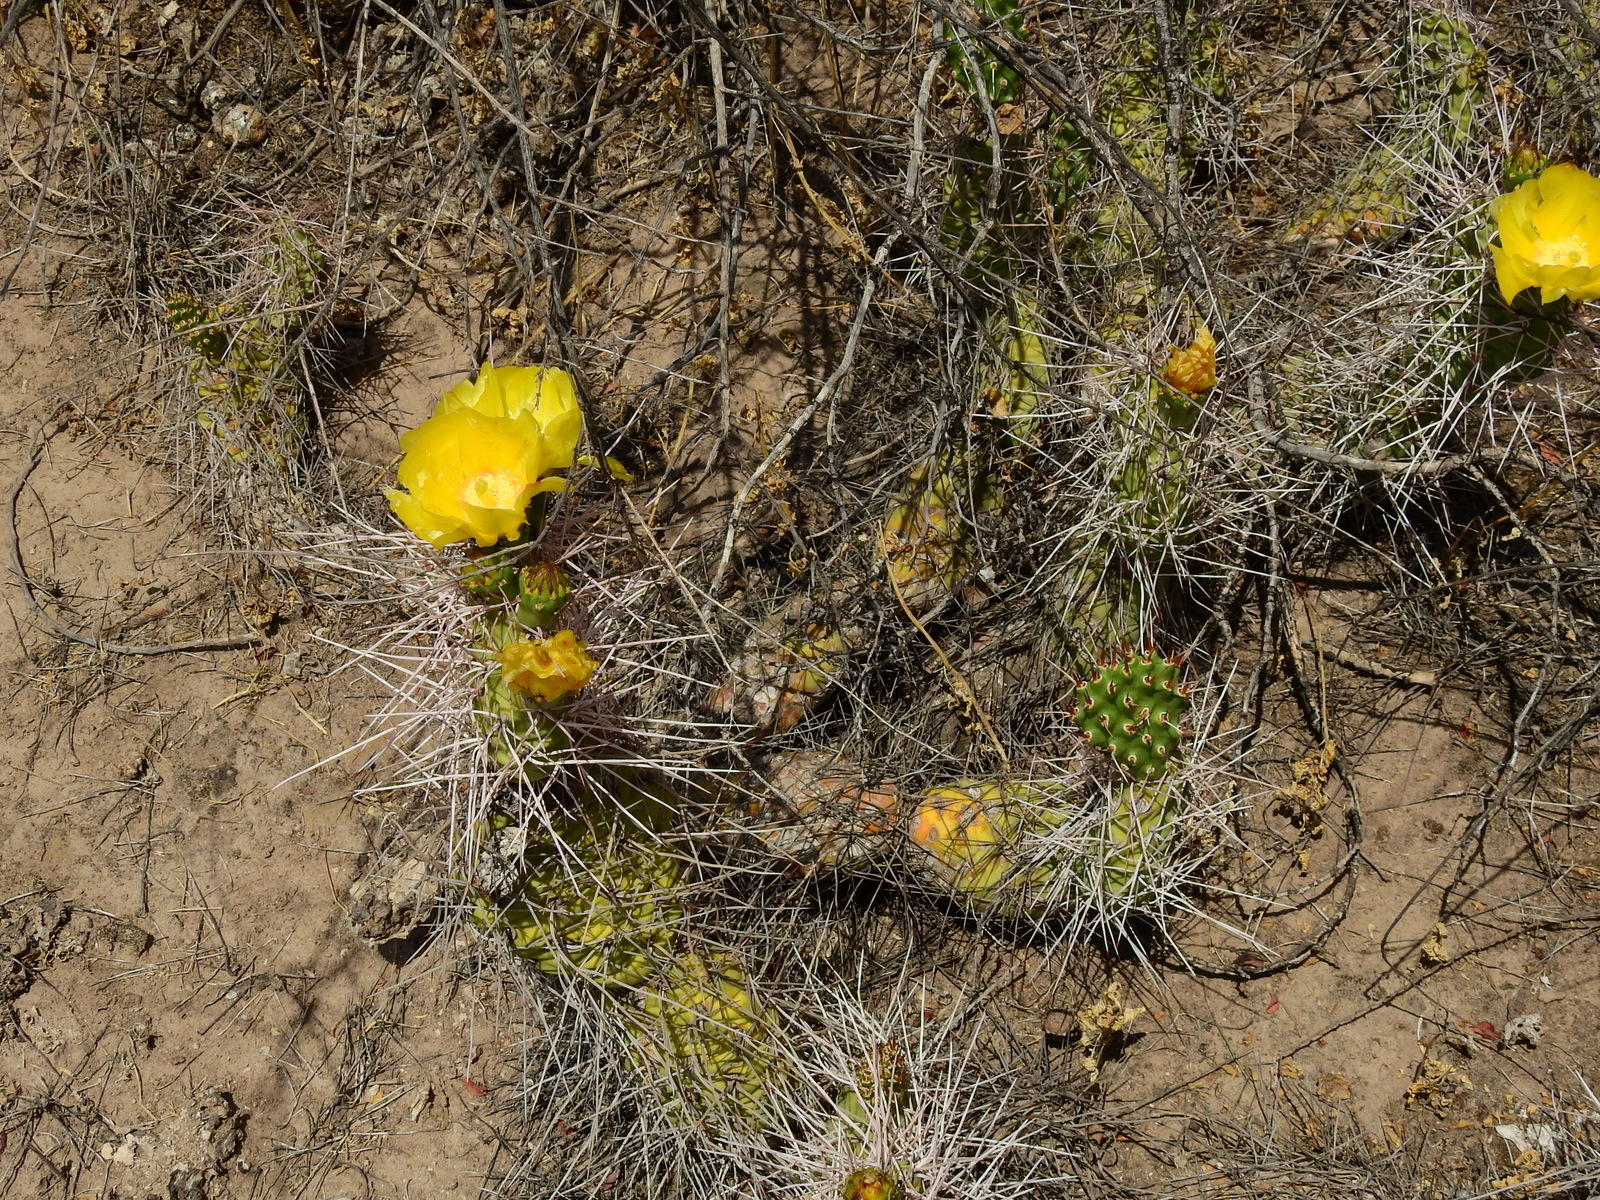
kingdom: Plantae
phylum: Tracheophyta
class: Magnoliopsida
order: Caryophyllales
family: Cactaceae
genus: Opuntia
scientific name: Opuntia sulphurea
